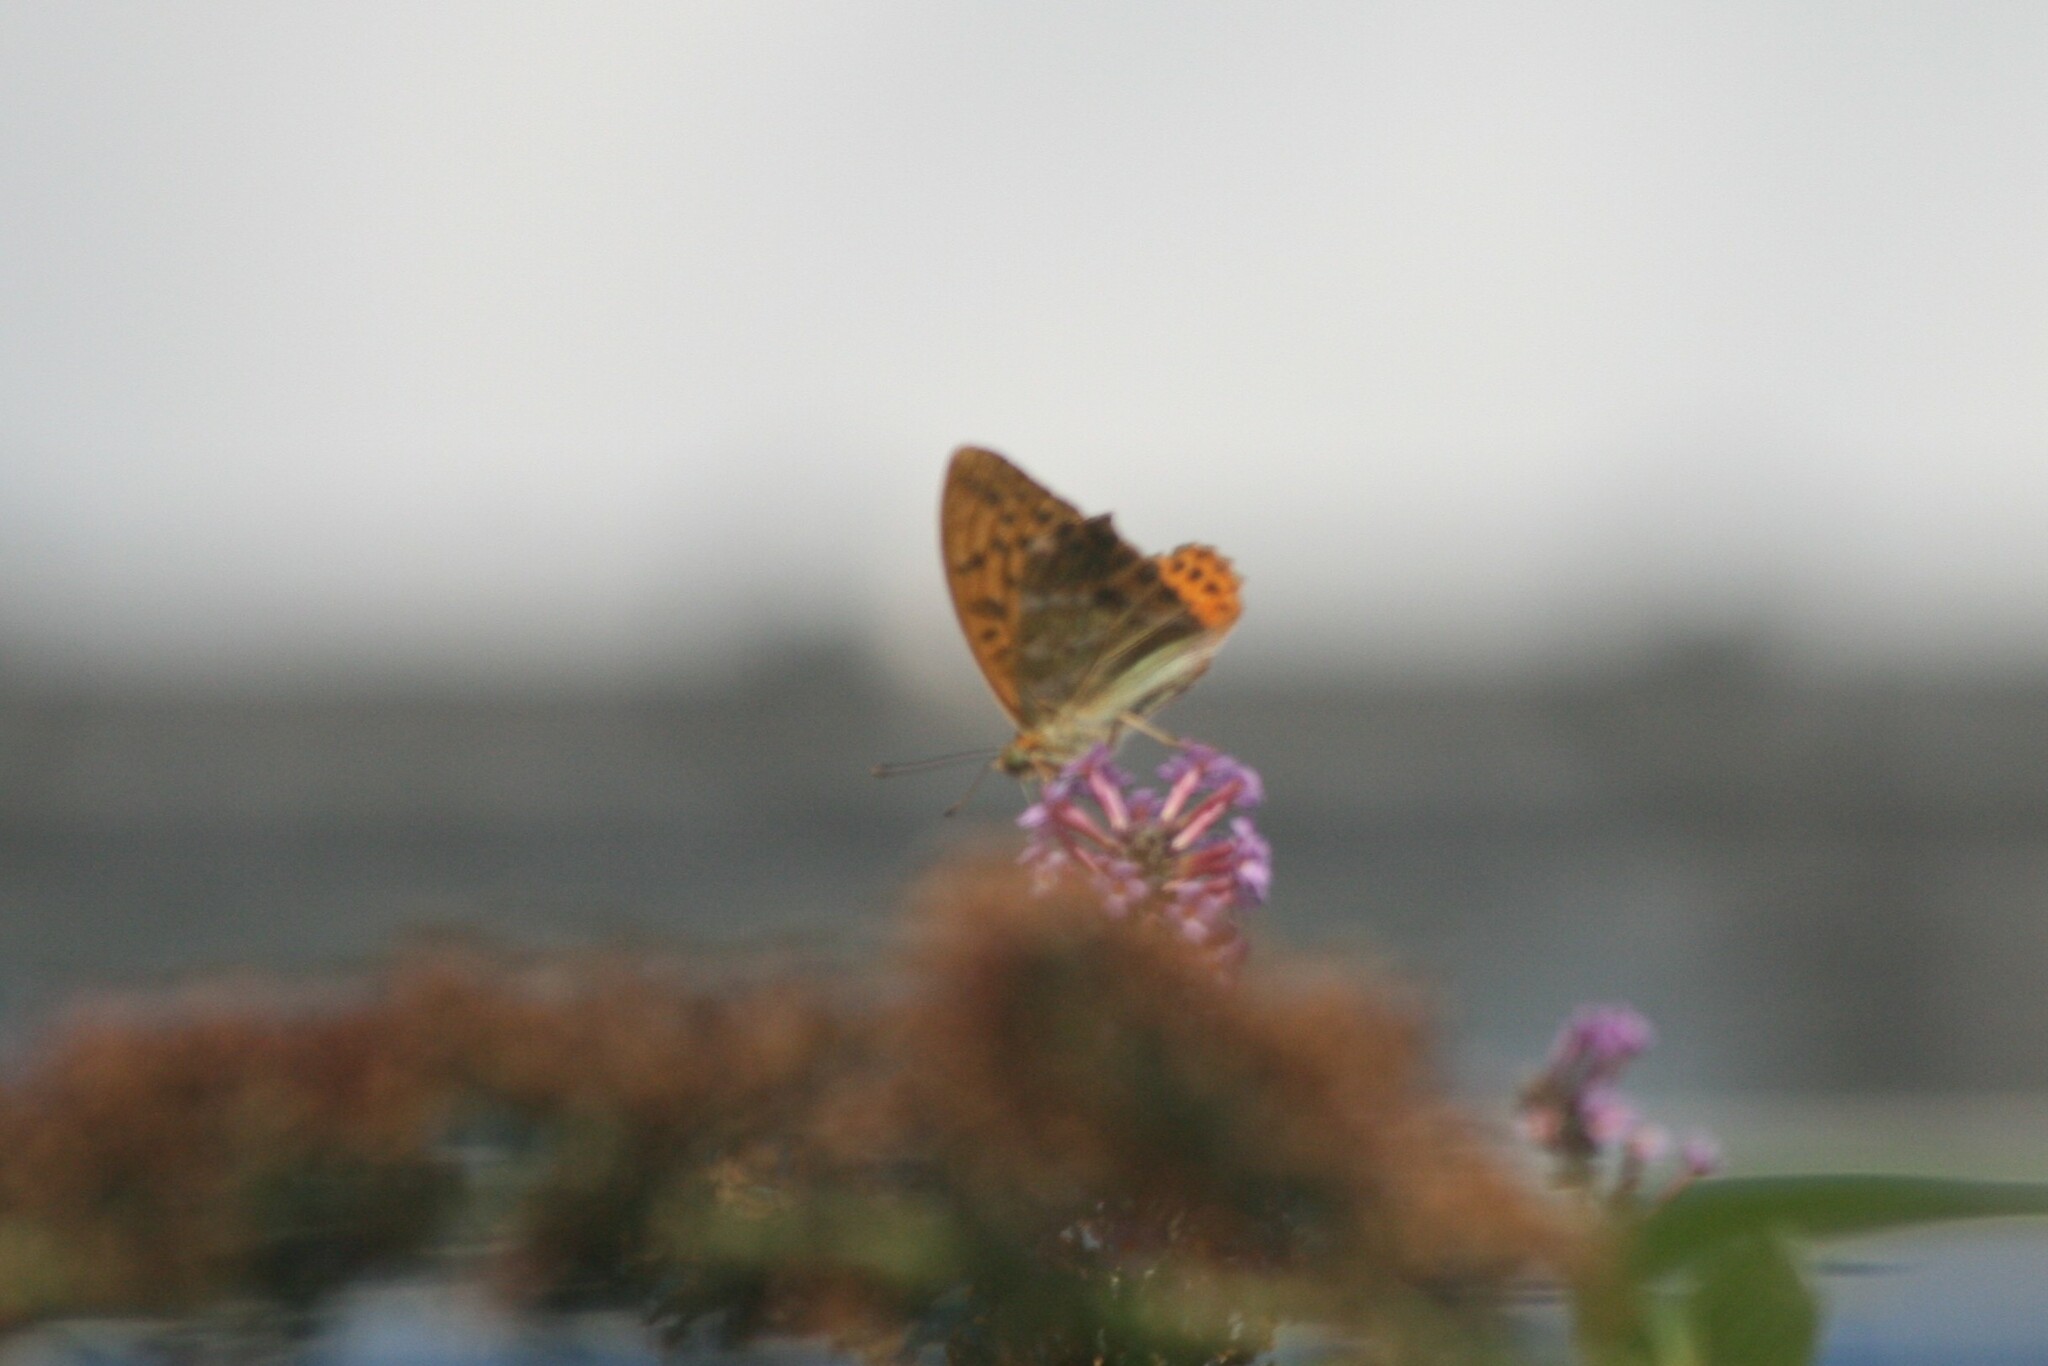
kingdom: Animalia
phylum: Arthropoda
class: Insecta
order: Lepidoptera
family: Nymphalidae
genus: Argynnis
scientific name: Argynnis paphia
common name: Silver-washed fritillary
